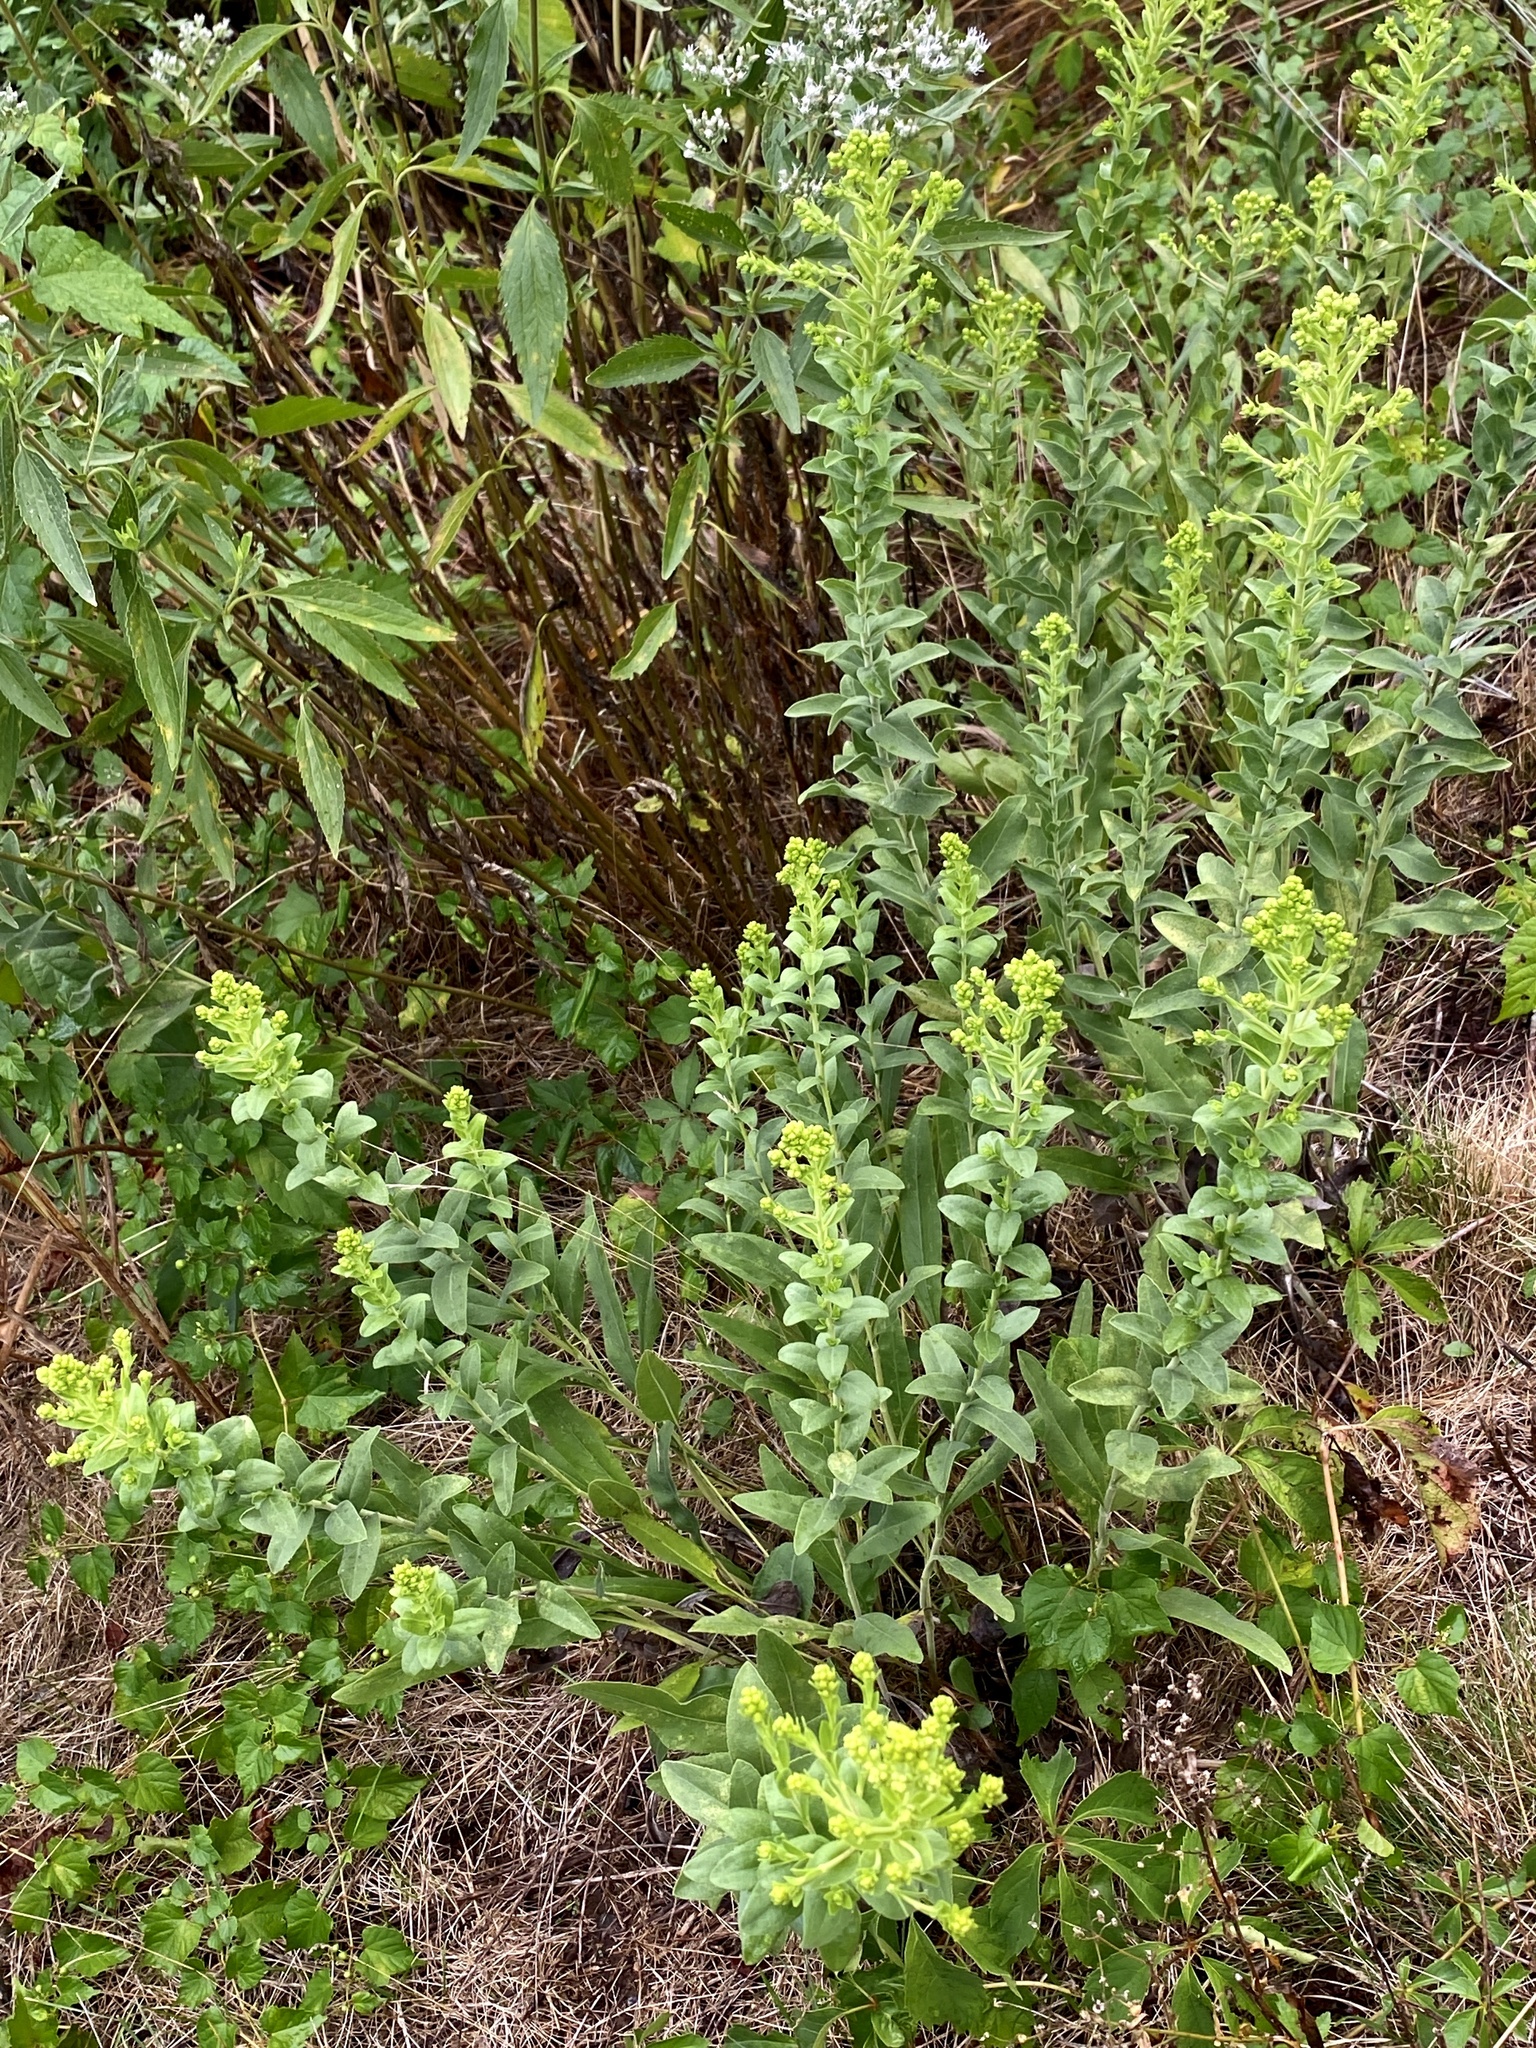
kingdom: Plantae
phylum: Tracheophyta
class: Magnoliopsida
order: Asterales
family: Asteraceae
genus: Solidago
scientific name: Solidago rigida
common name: Rigid goldenrod
